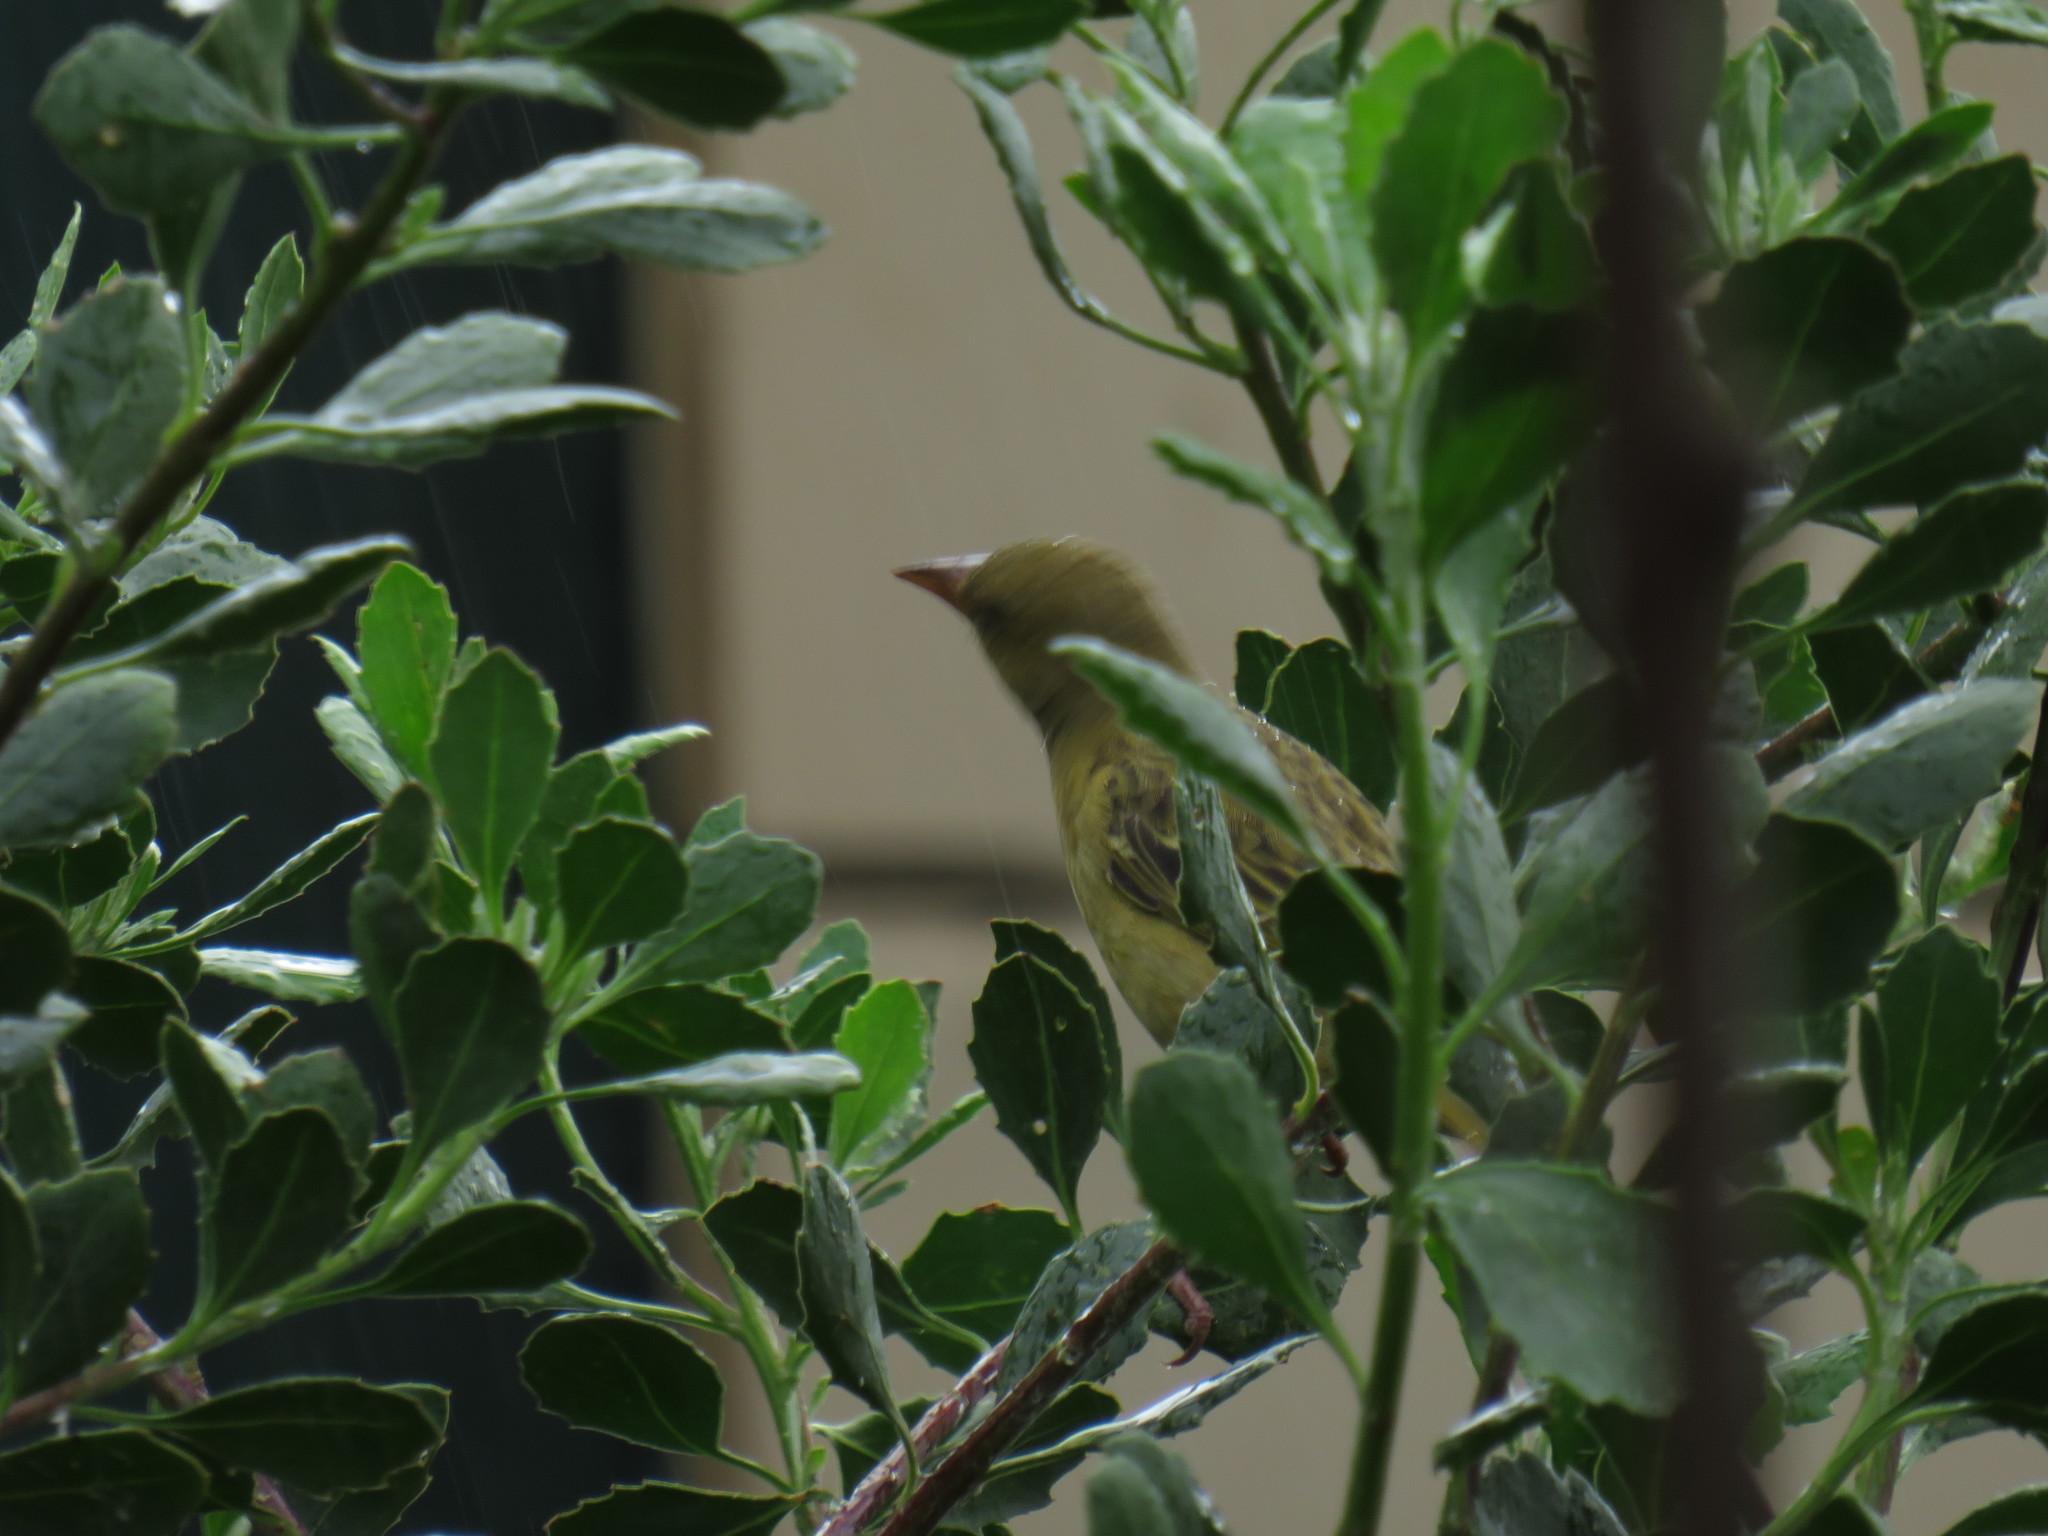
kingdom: Animalia
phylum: Chordata
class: Aves
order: Passeriformes
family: Ploceidae
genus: Ploceus
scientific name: Ploceus capensis
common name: Cape weaver
